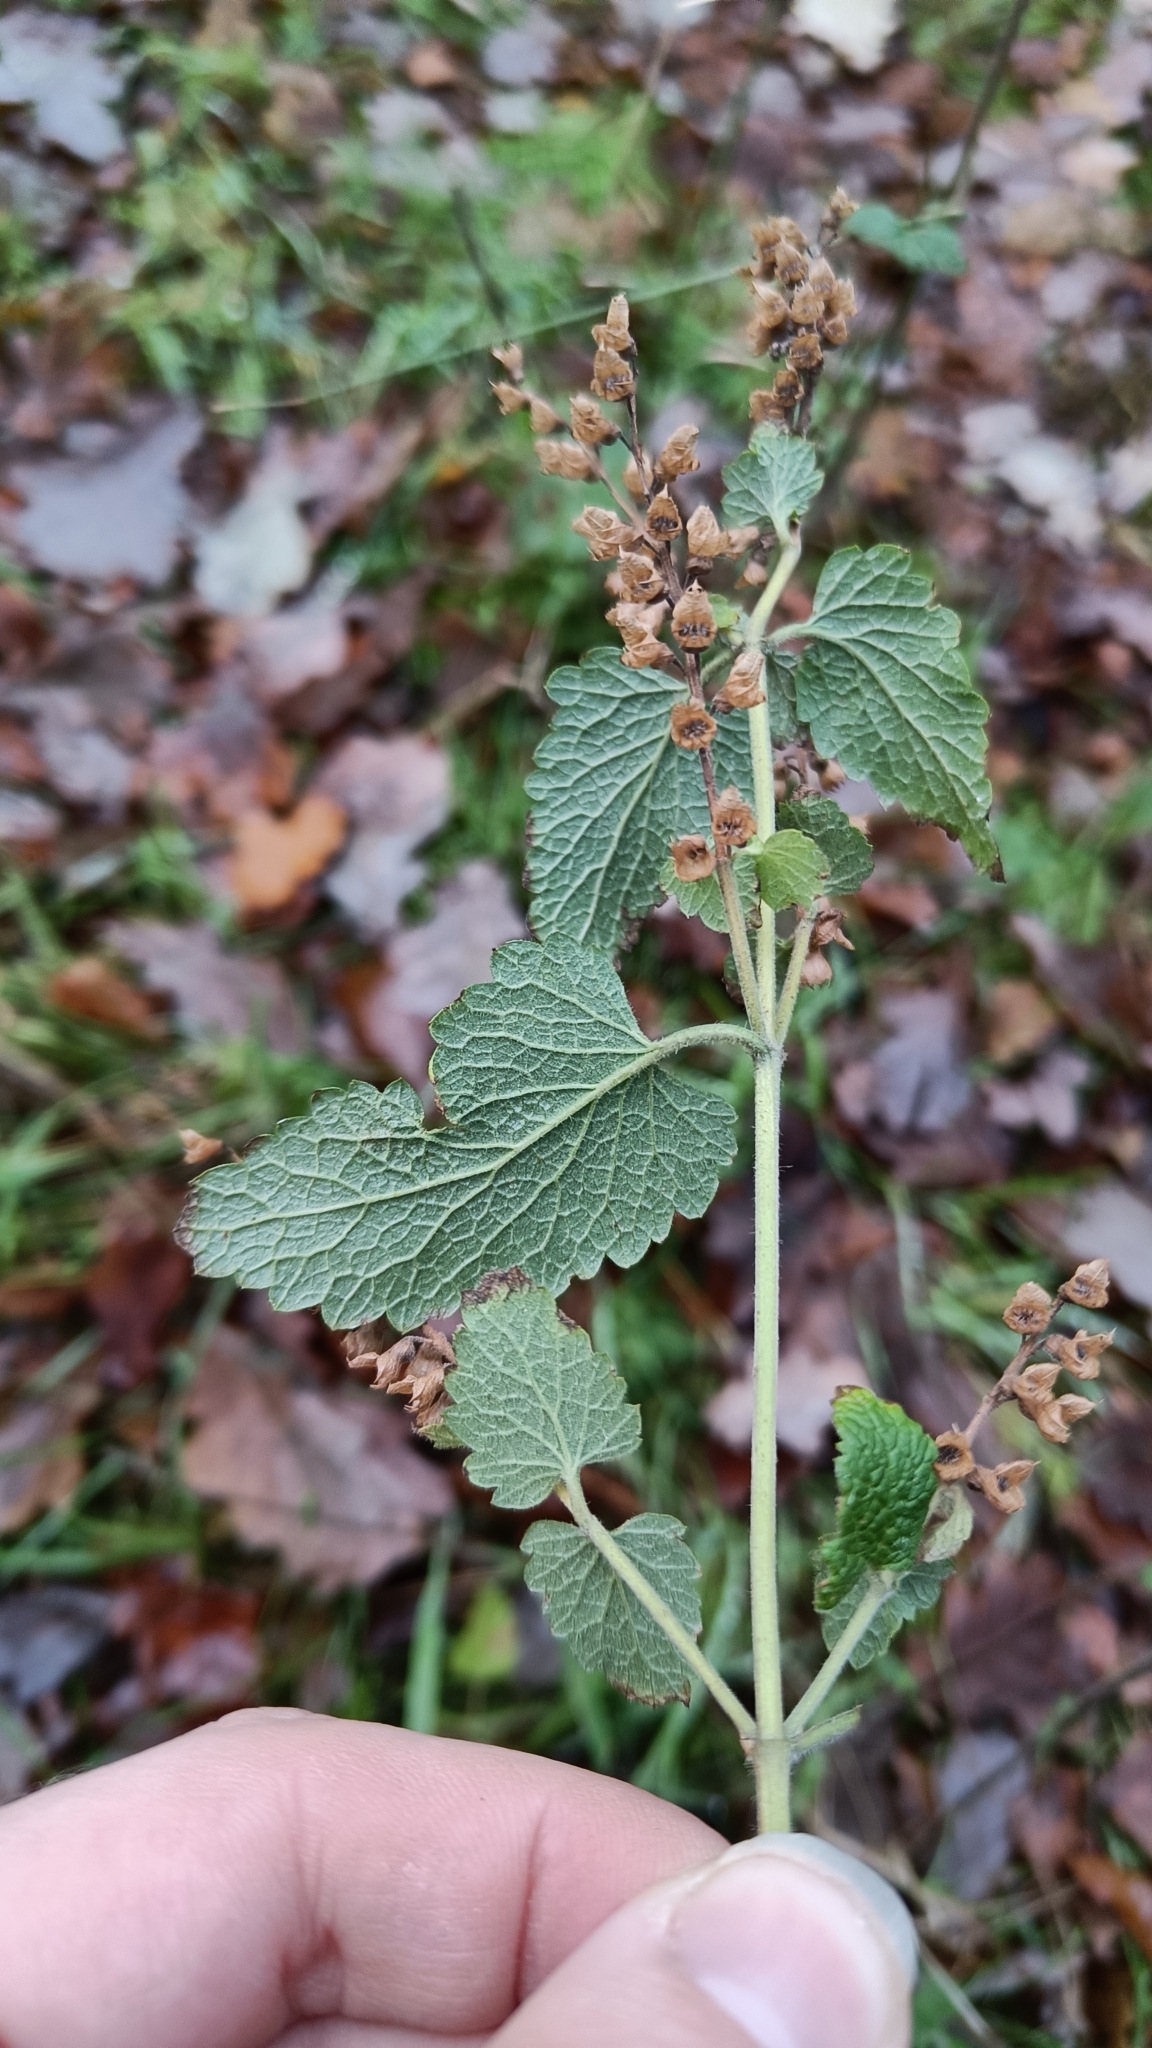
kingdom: Plantae
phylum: Tracheophyta
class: Magnoliopsida
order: Lamiales
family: Lamiaceae
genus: Teucrium
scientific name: Teucrium scorodonia
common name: Woodland germander
